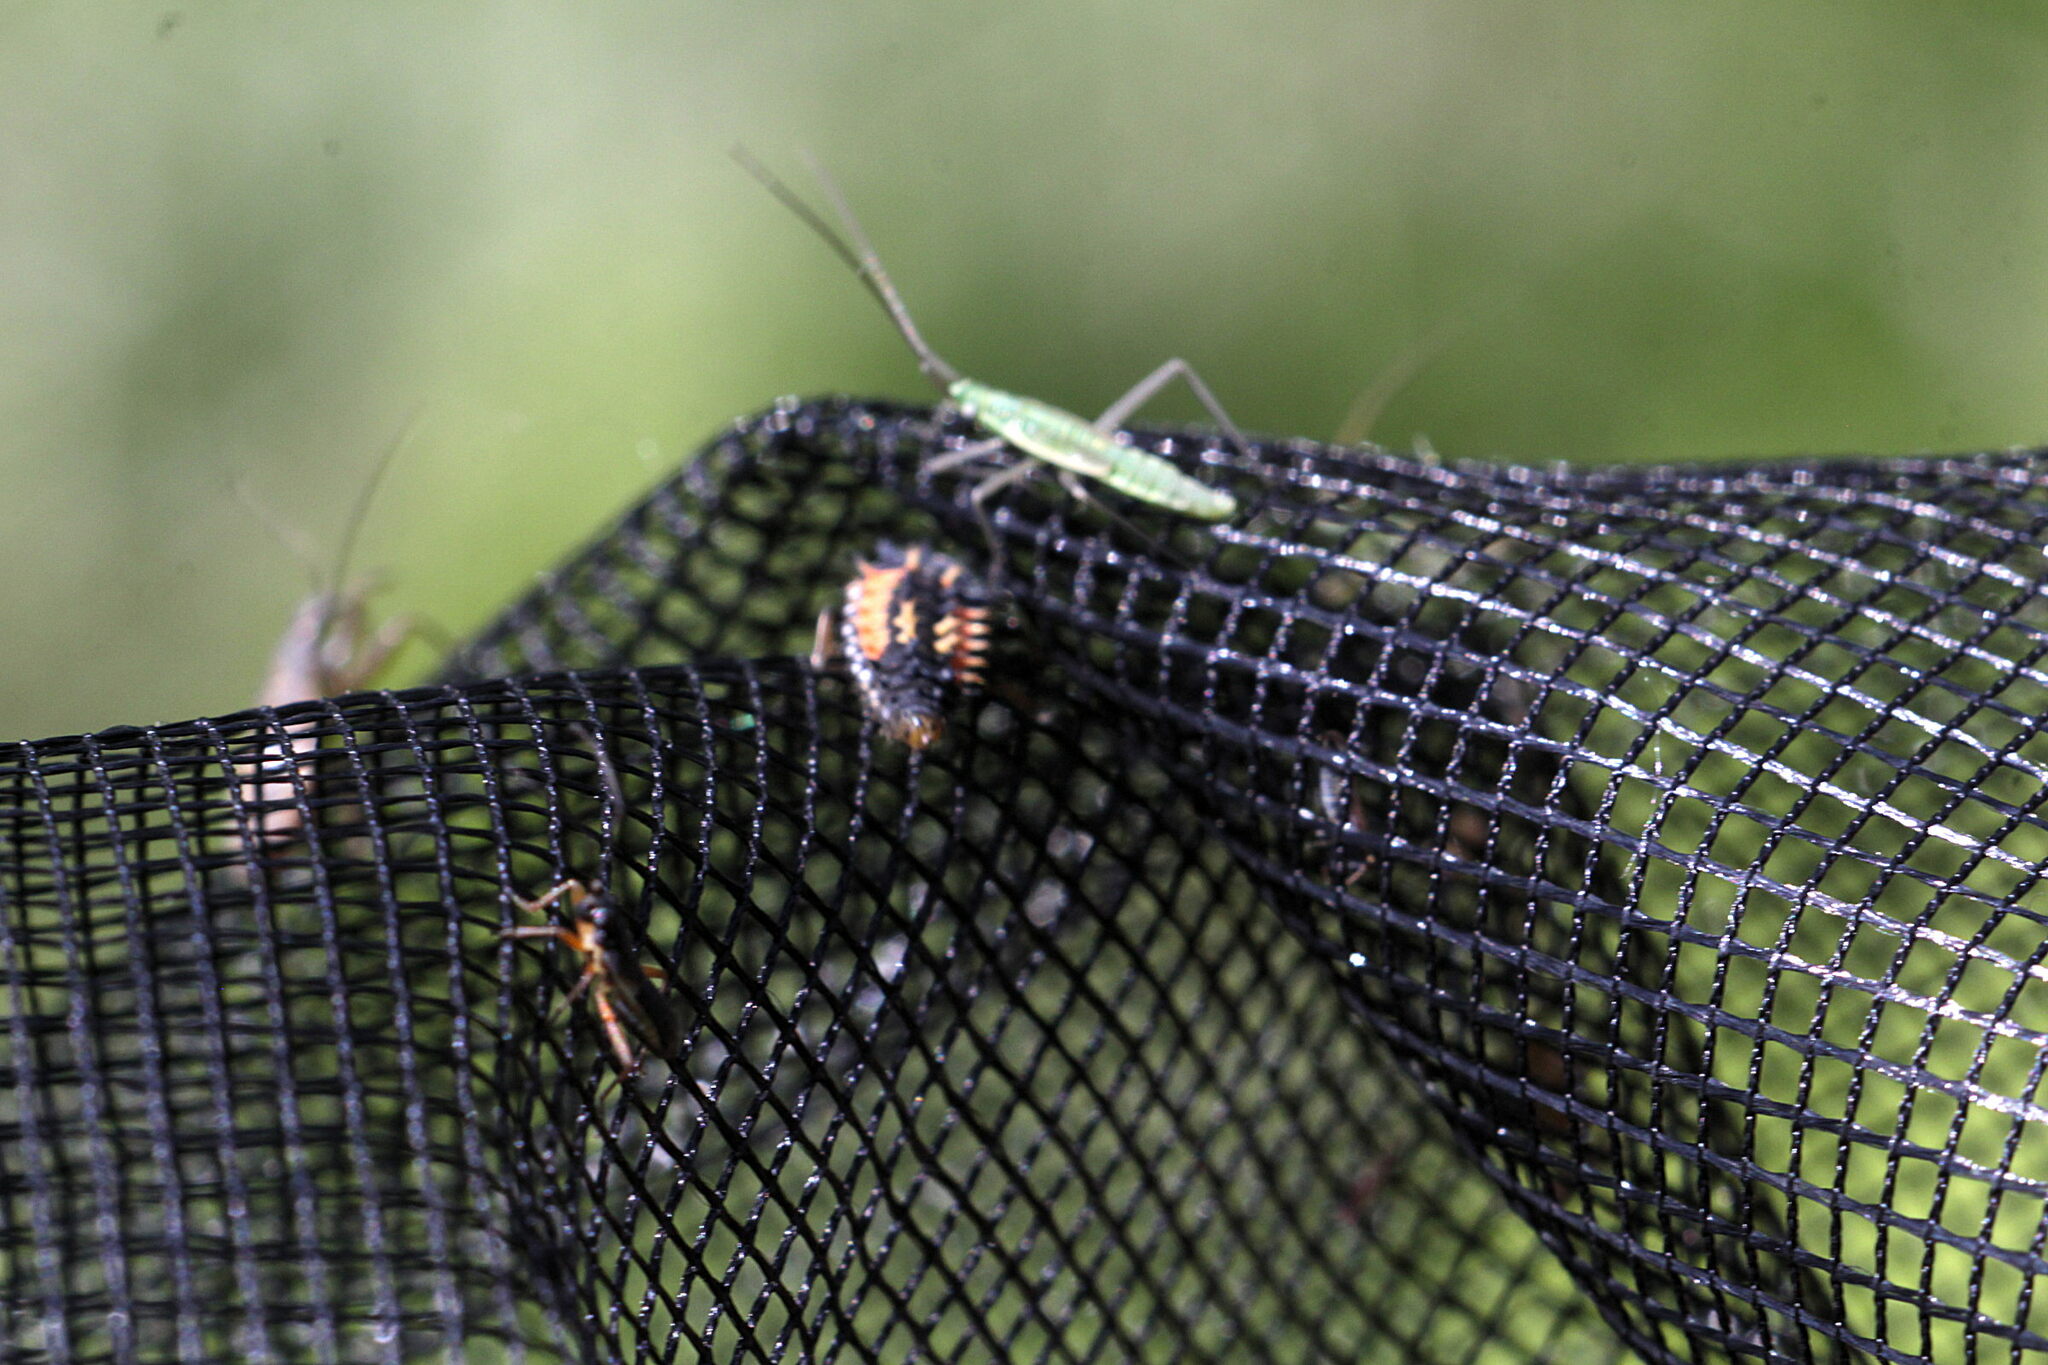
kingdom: Animalia
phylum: Arthropoda
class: Insecta
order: Coleoptera
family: Coccinellidae
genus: Harmonia
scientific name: Harmonia axyridis
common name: Harlequin ladybird
